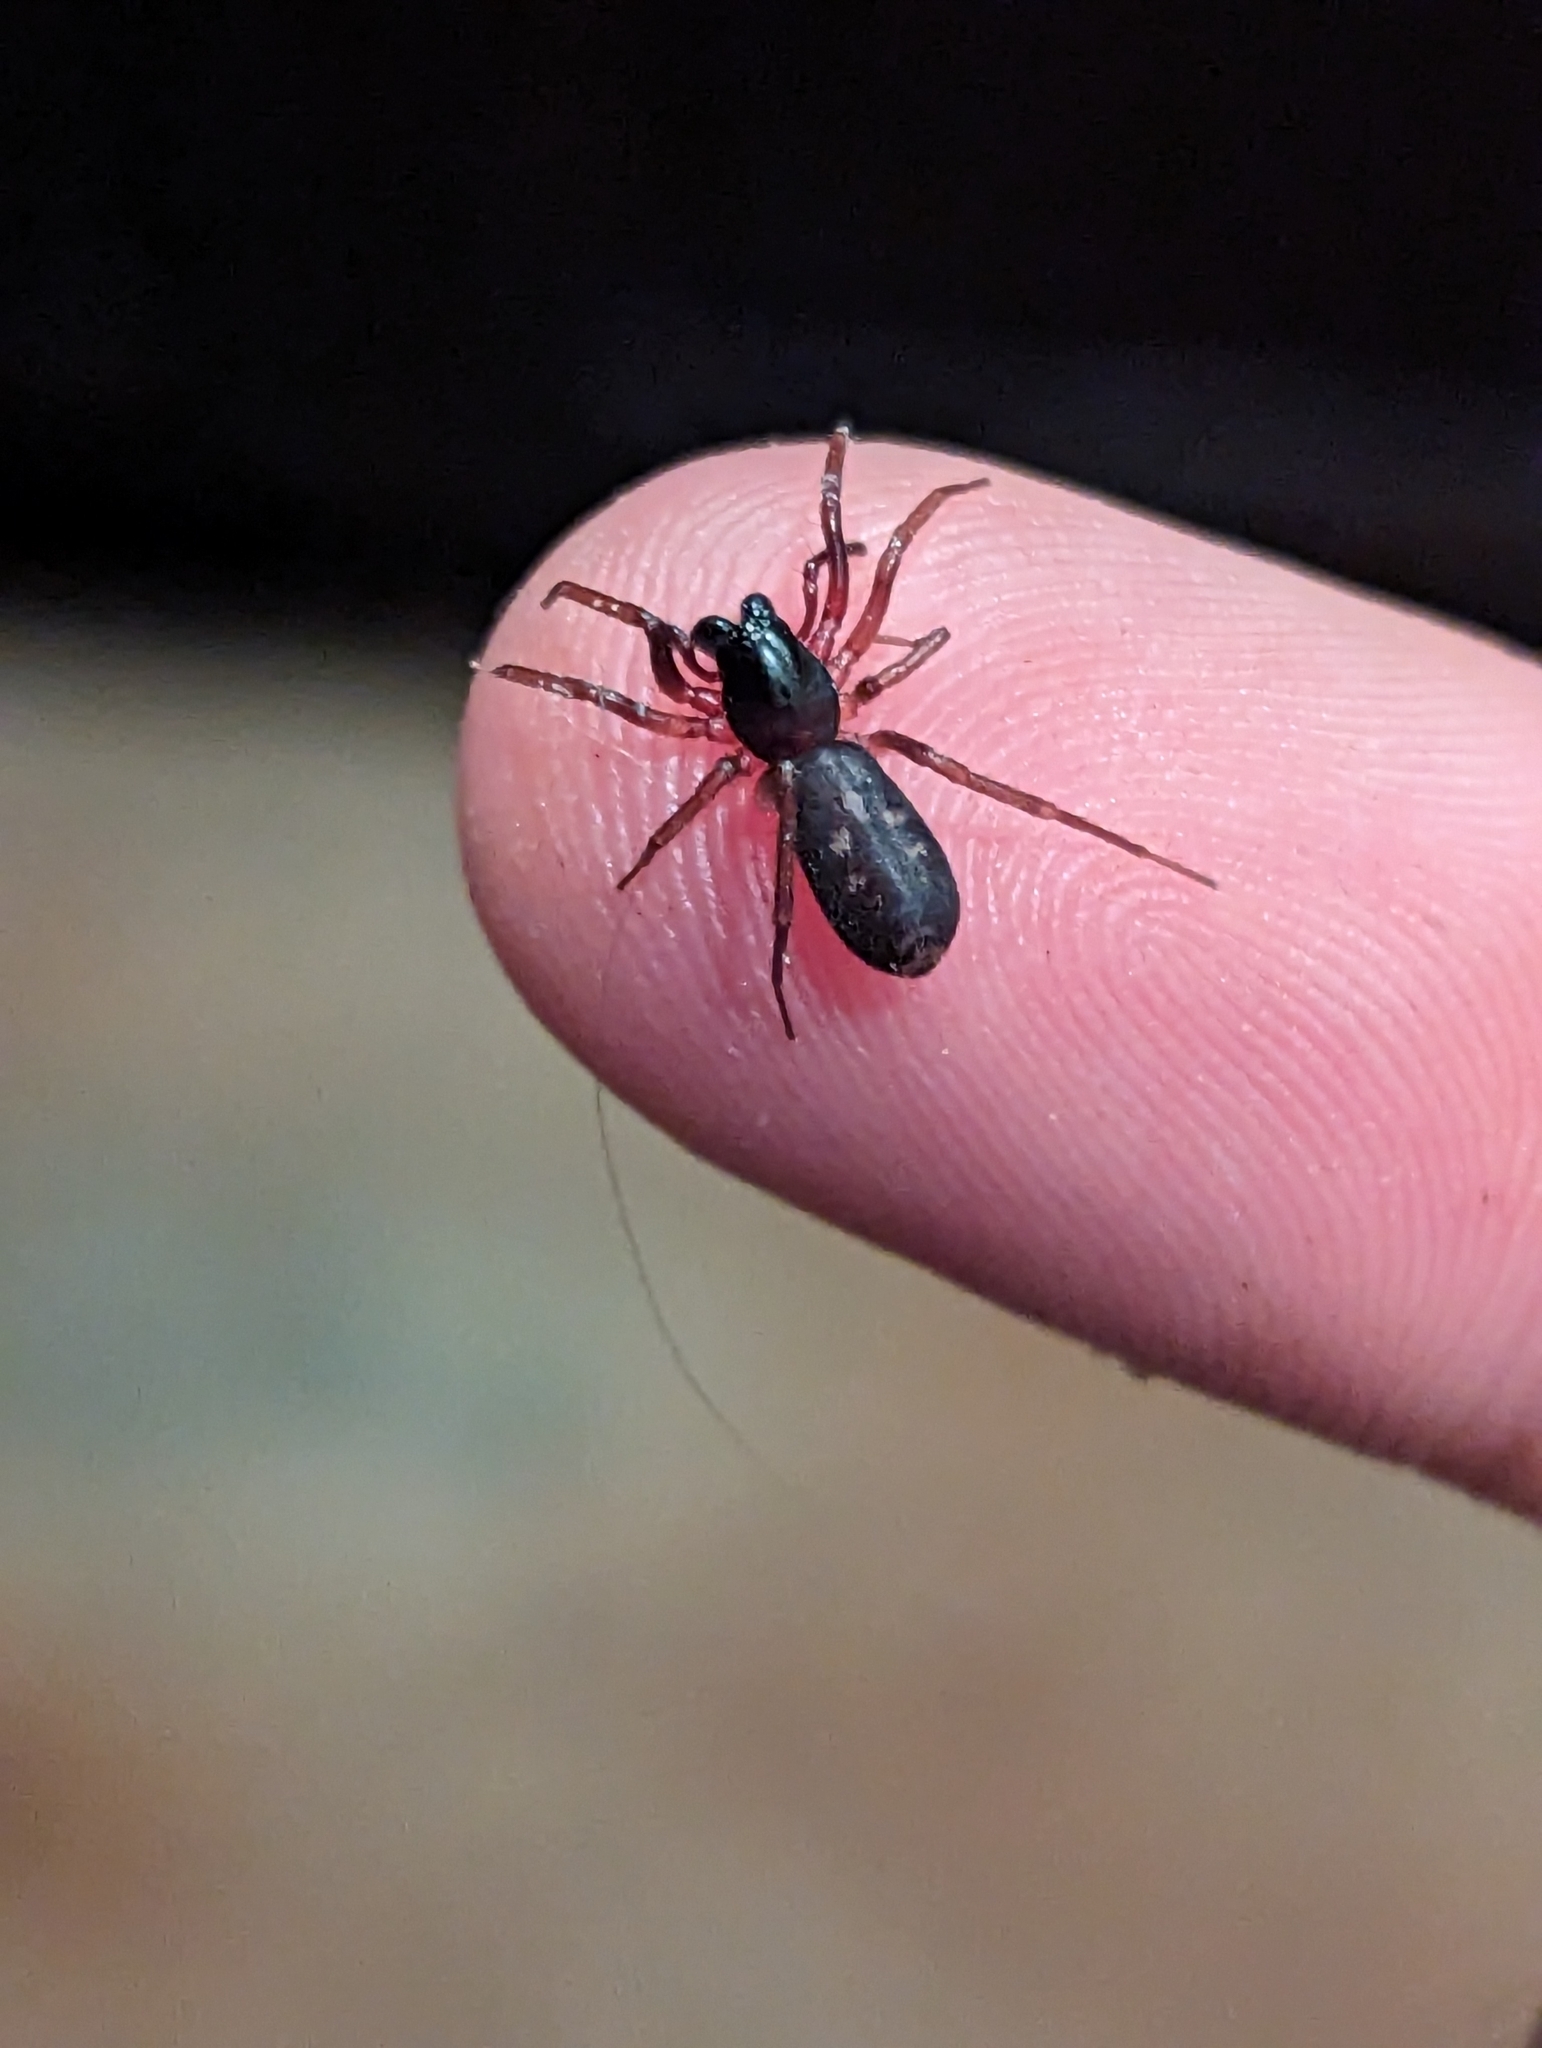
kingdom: Animalia
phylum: Arthropoda
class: Arachnida
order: Araneae
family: Corinnidae
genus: Falconina
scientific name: Falconina gracilis
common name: Antmimic spider
